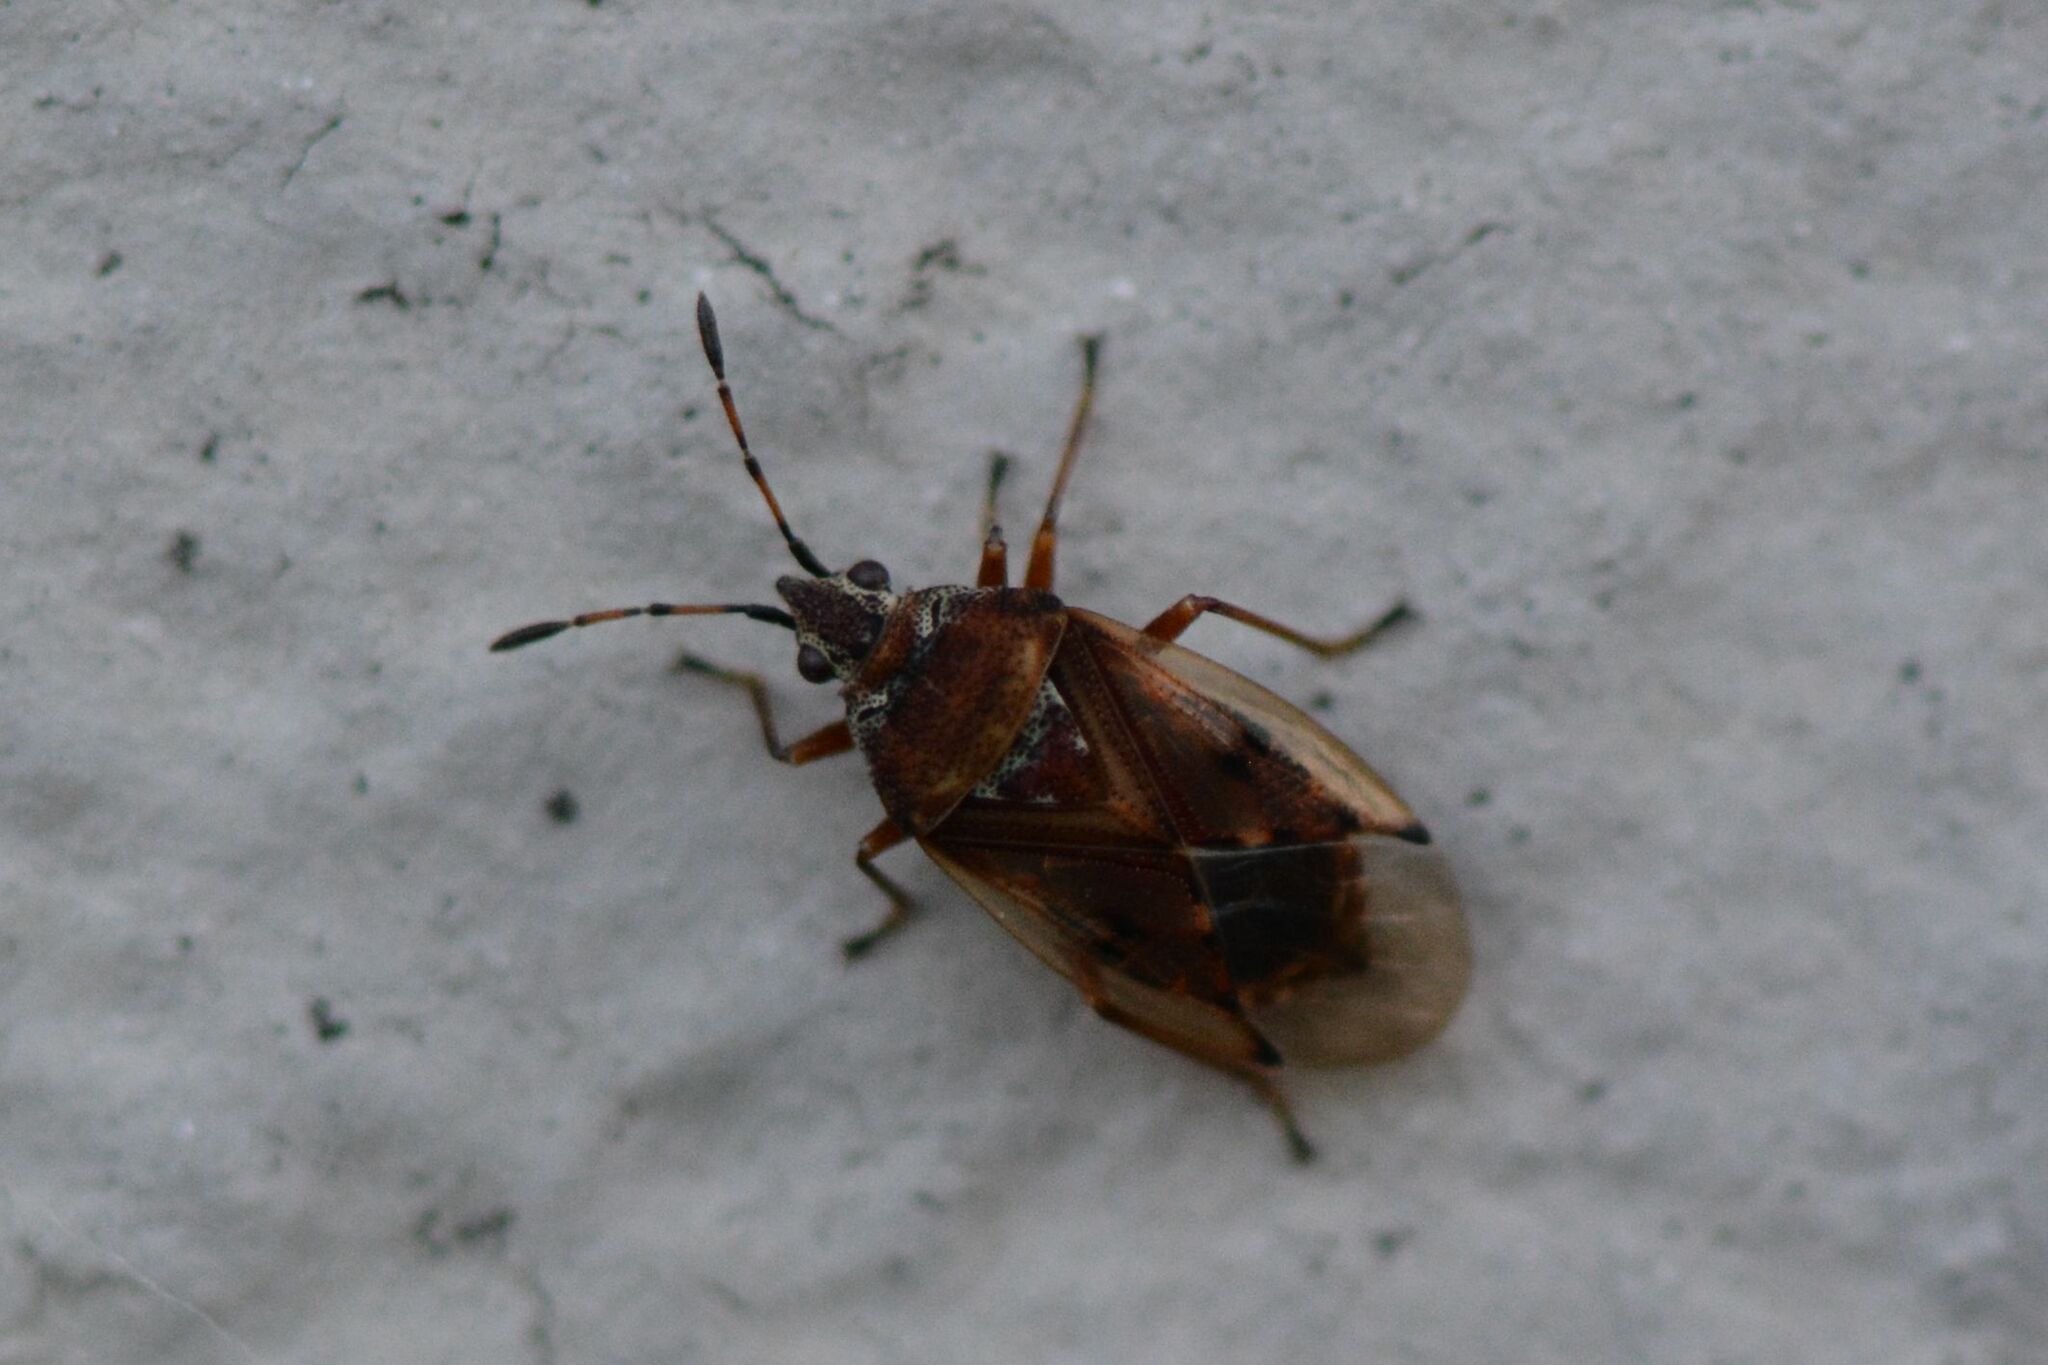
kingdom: Animalia
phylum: Arthropoda
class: Insecta
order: Hemiptera
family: Lygaeidae
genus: Kleidocerys
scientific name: Kleidocerys resedae
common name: Birch catkin bug
